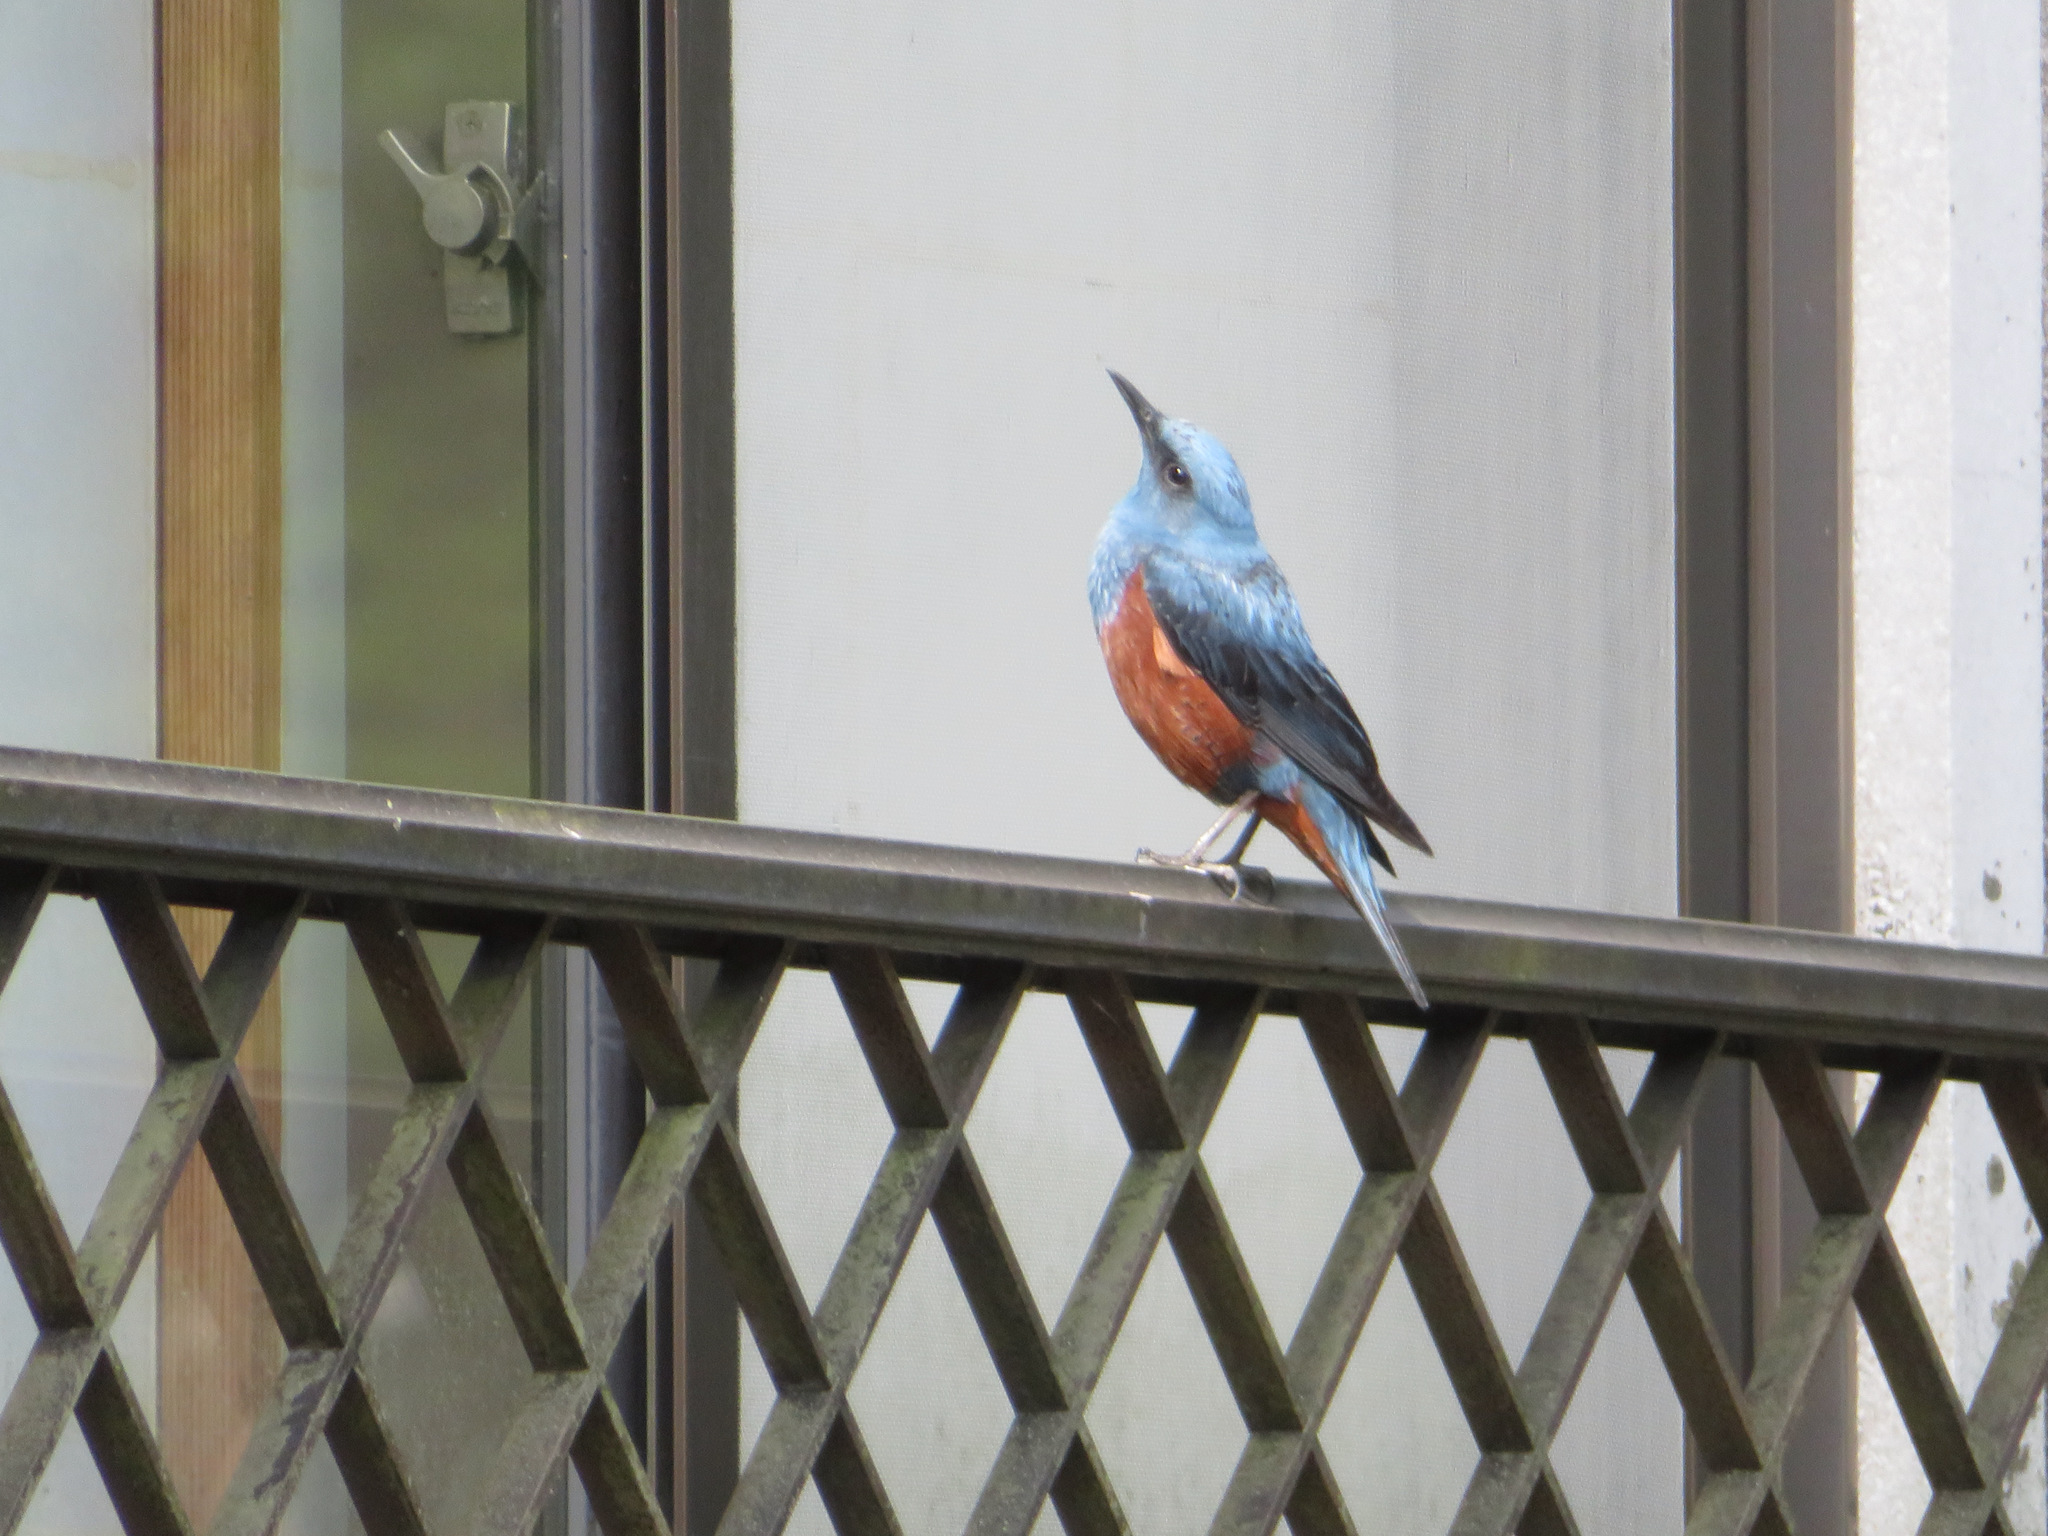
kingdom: Animalia
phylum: Chordata
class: Aves
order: Passeriformes
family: Muscicapidae
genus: Monticola
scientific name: Monticola solitarius
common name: Blue rock thrush
